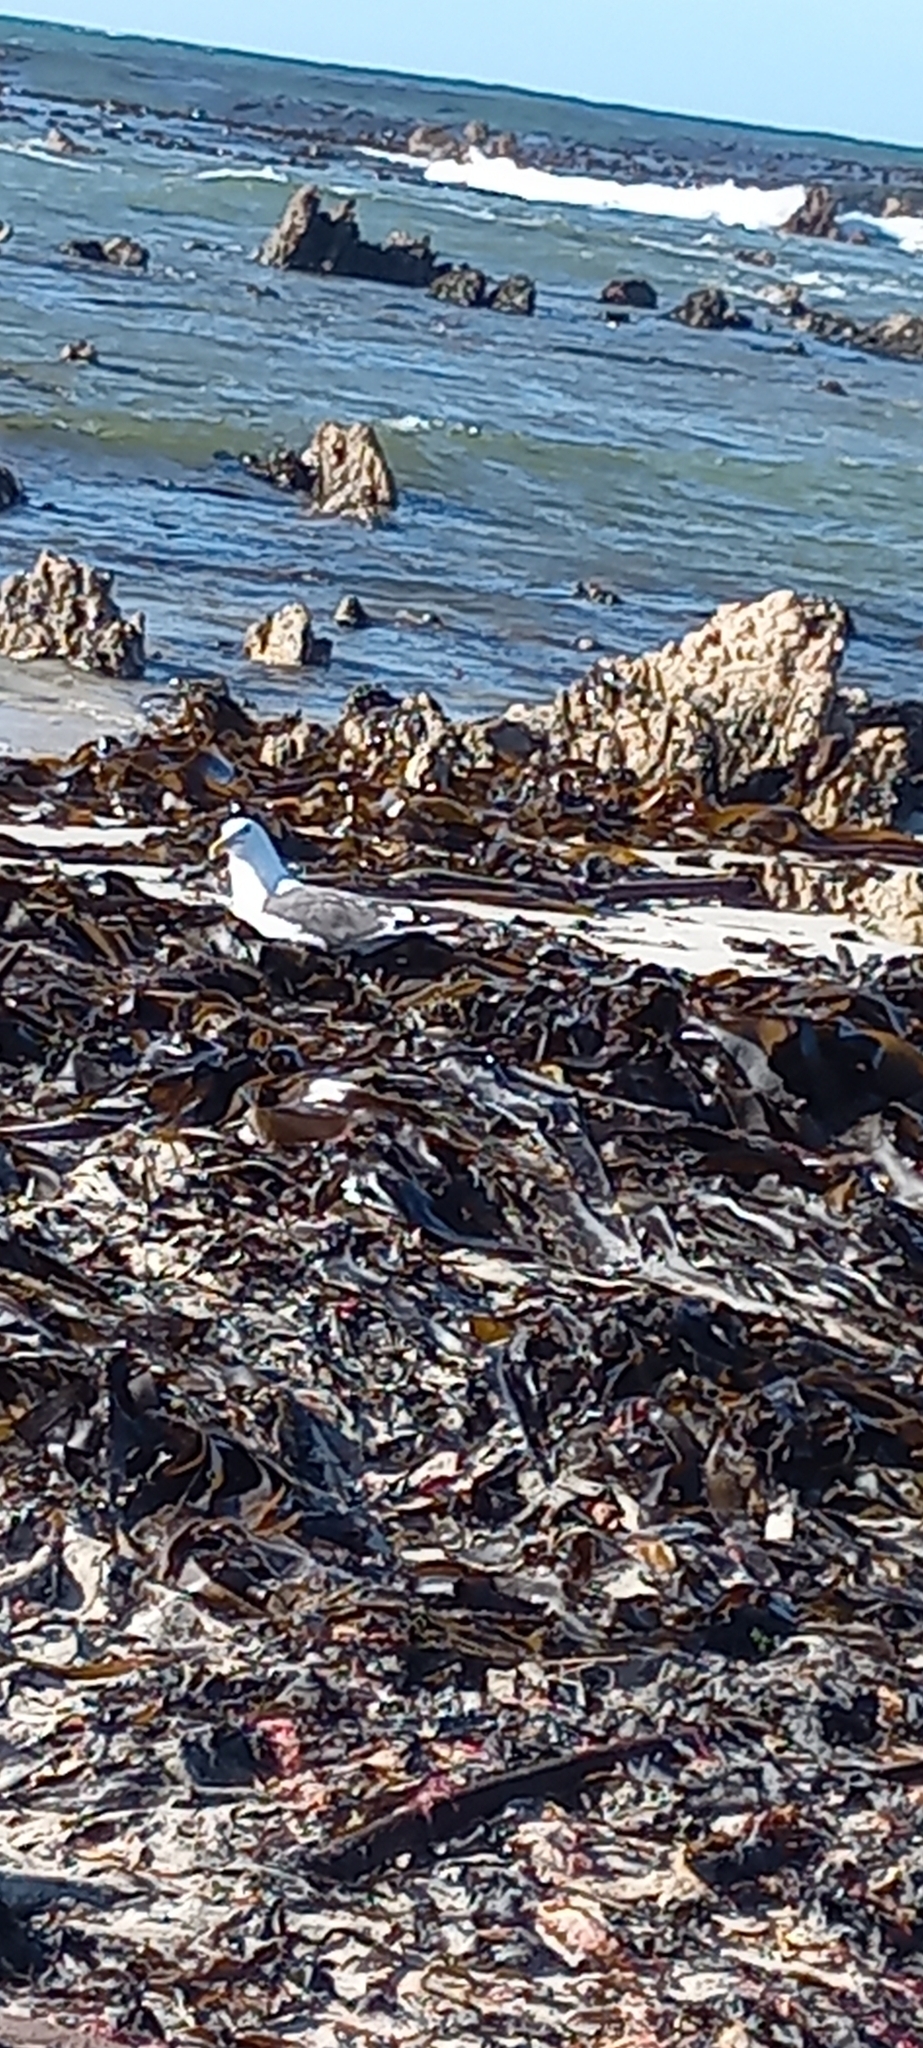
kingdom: Animalia
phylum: Chordata
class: Aves
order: Charadriiformes
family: Laridae
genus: Larus
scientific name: Larus dominicanus
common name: Kelp gull
